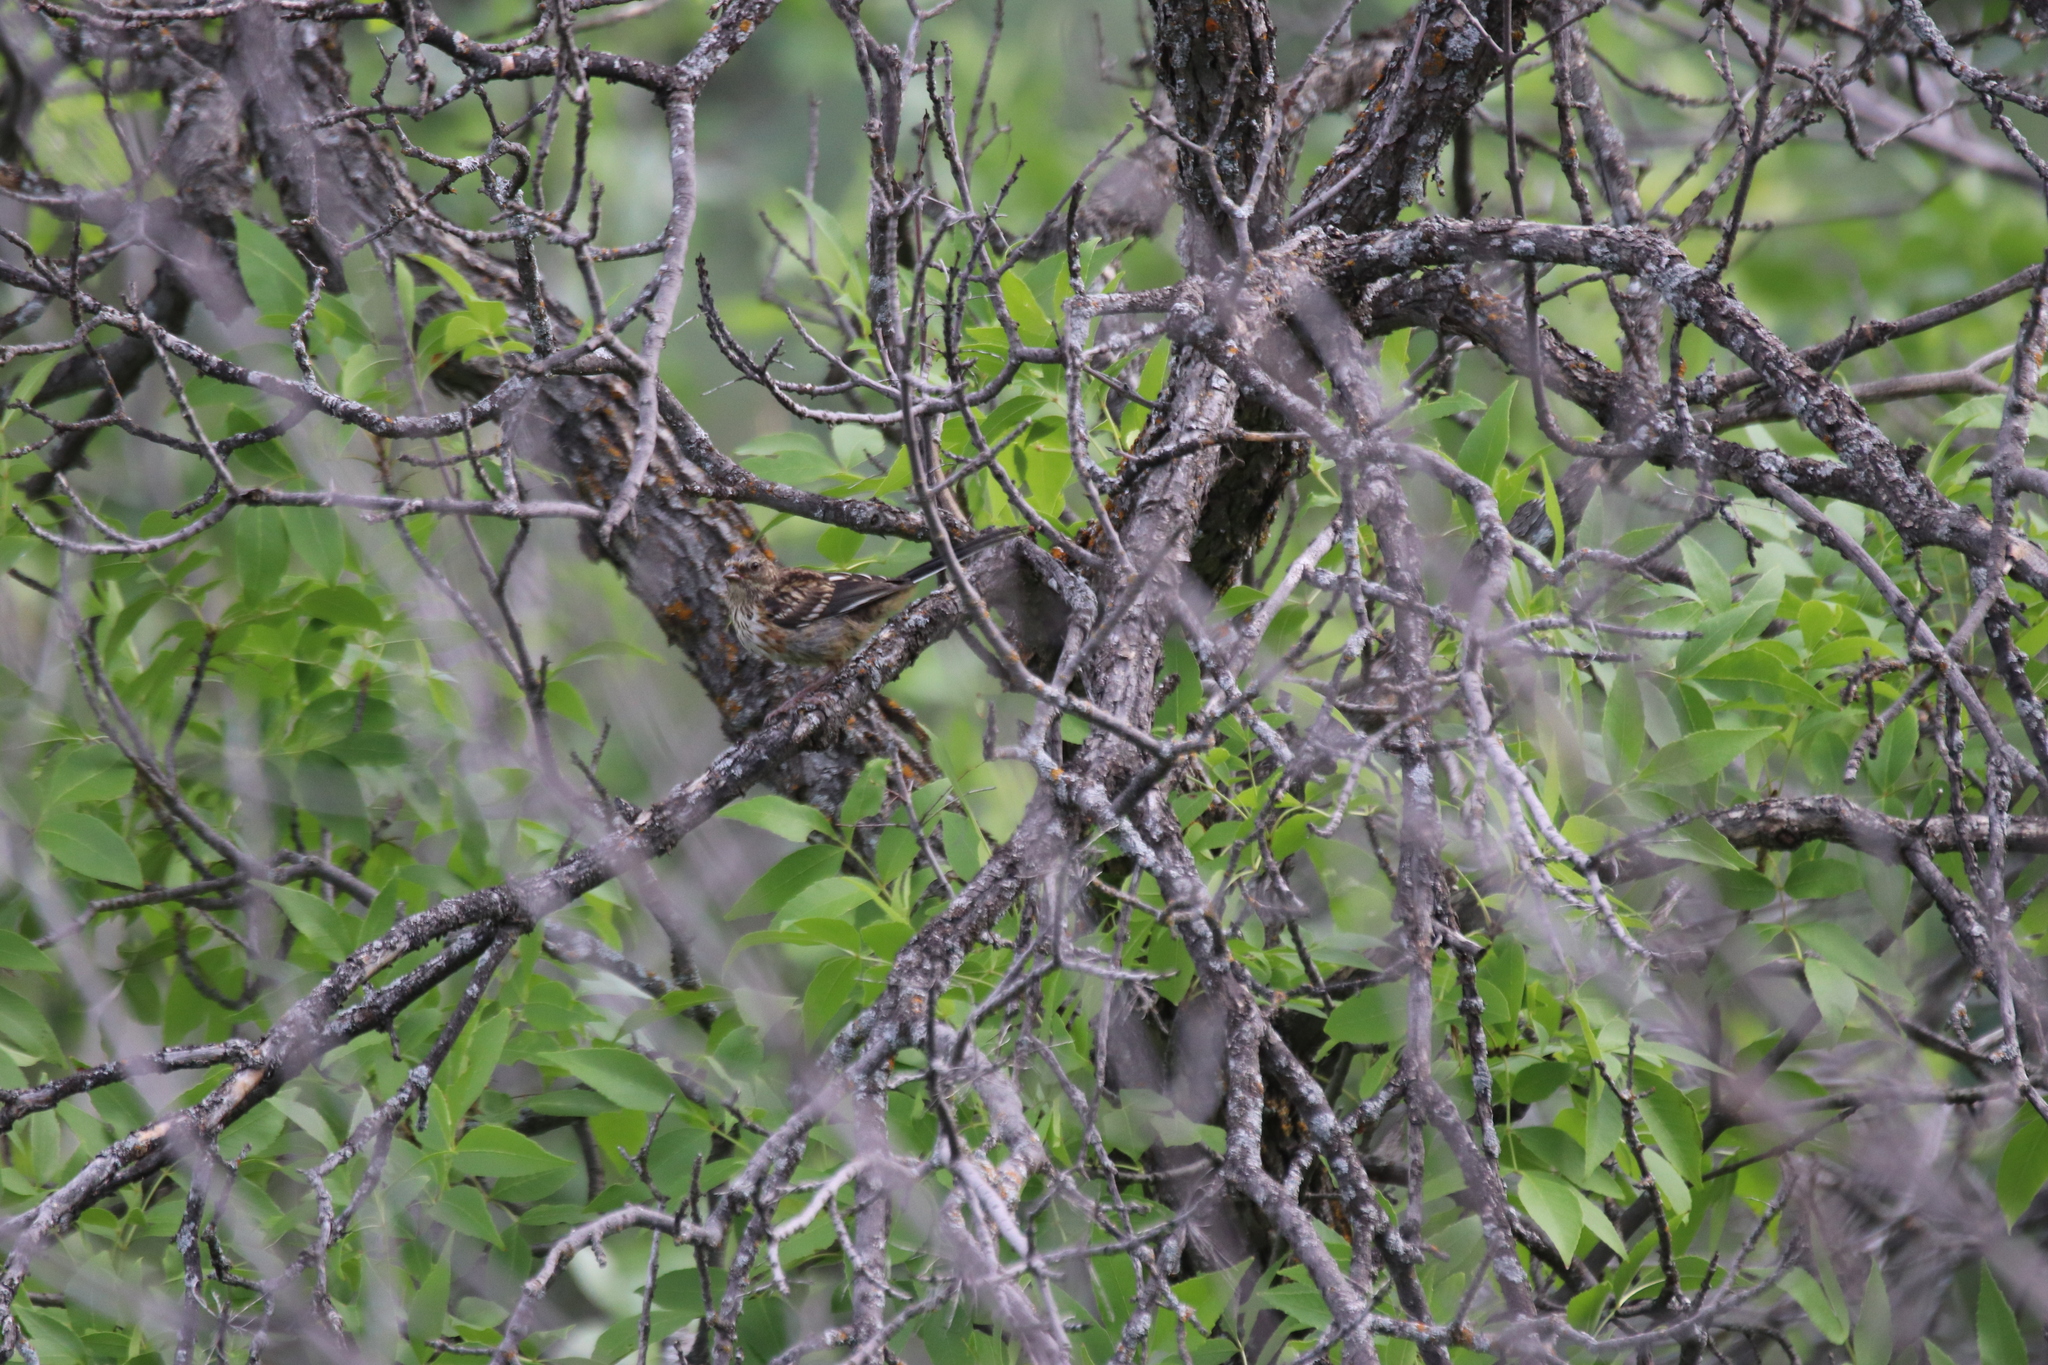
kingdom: Animalia
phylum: Chordata
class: Aves
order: Passeriformes
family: Passerellidae
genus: Pipilo
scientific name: Pipilo maculatus
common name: Spotted towhee
